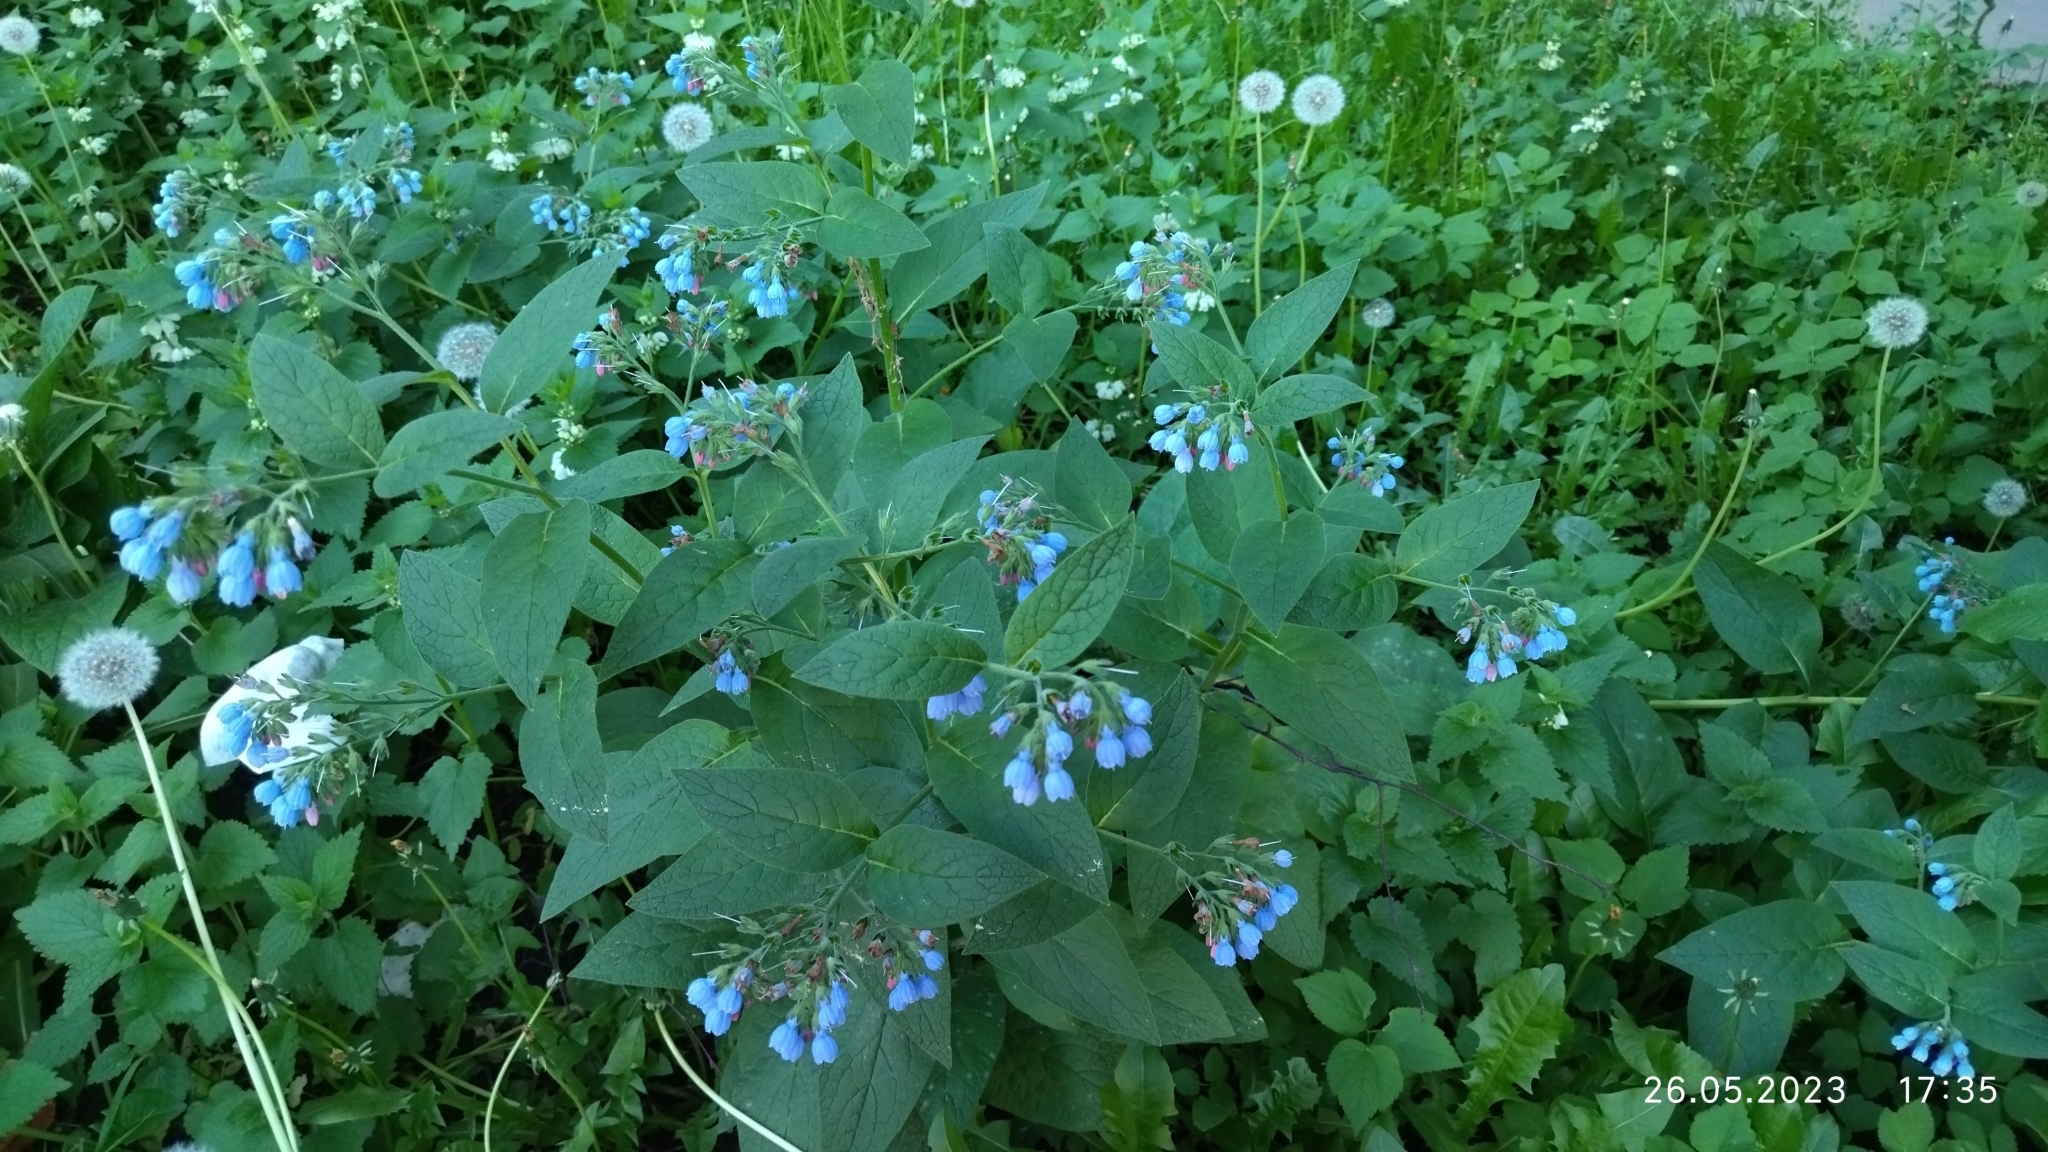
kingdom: Plantae
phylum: Tracheophyta
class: Magnoliopsida
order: Boraginales
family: Boraginaceae
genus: Symphytum
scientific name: Symphytum caucasicum
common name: Caucasian comfrey
